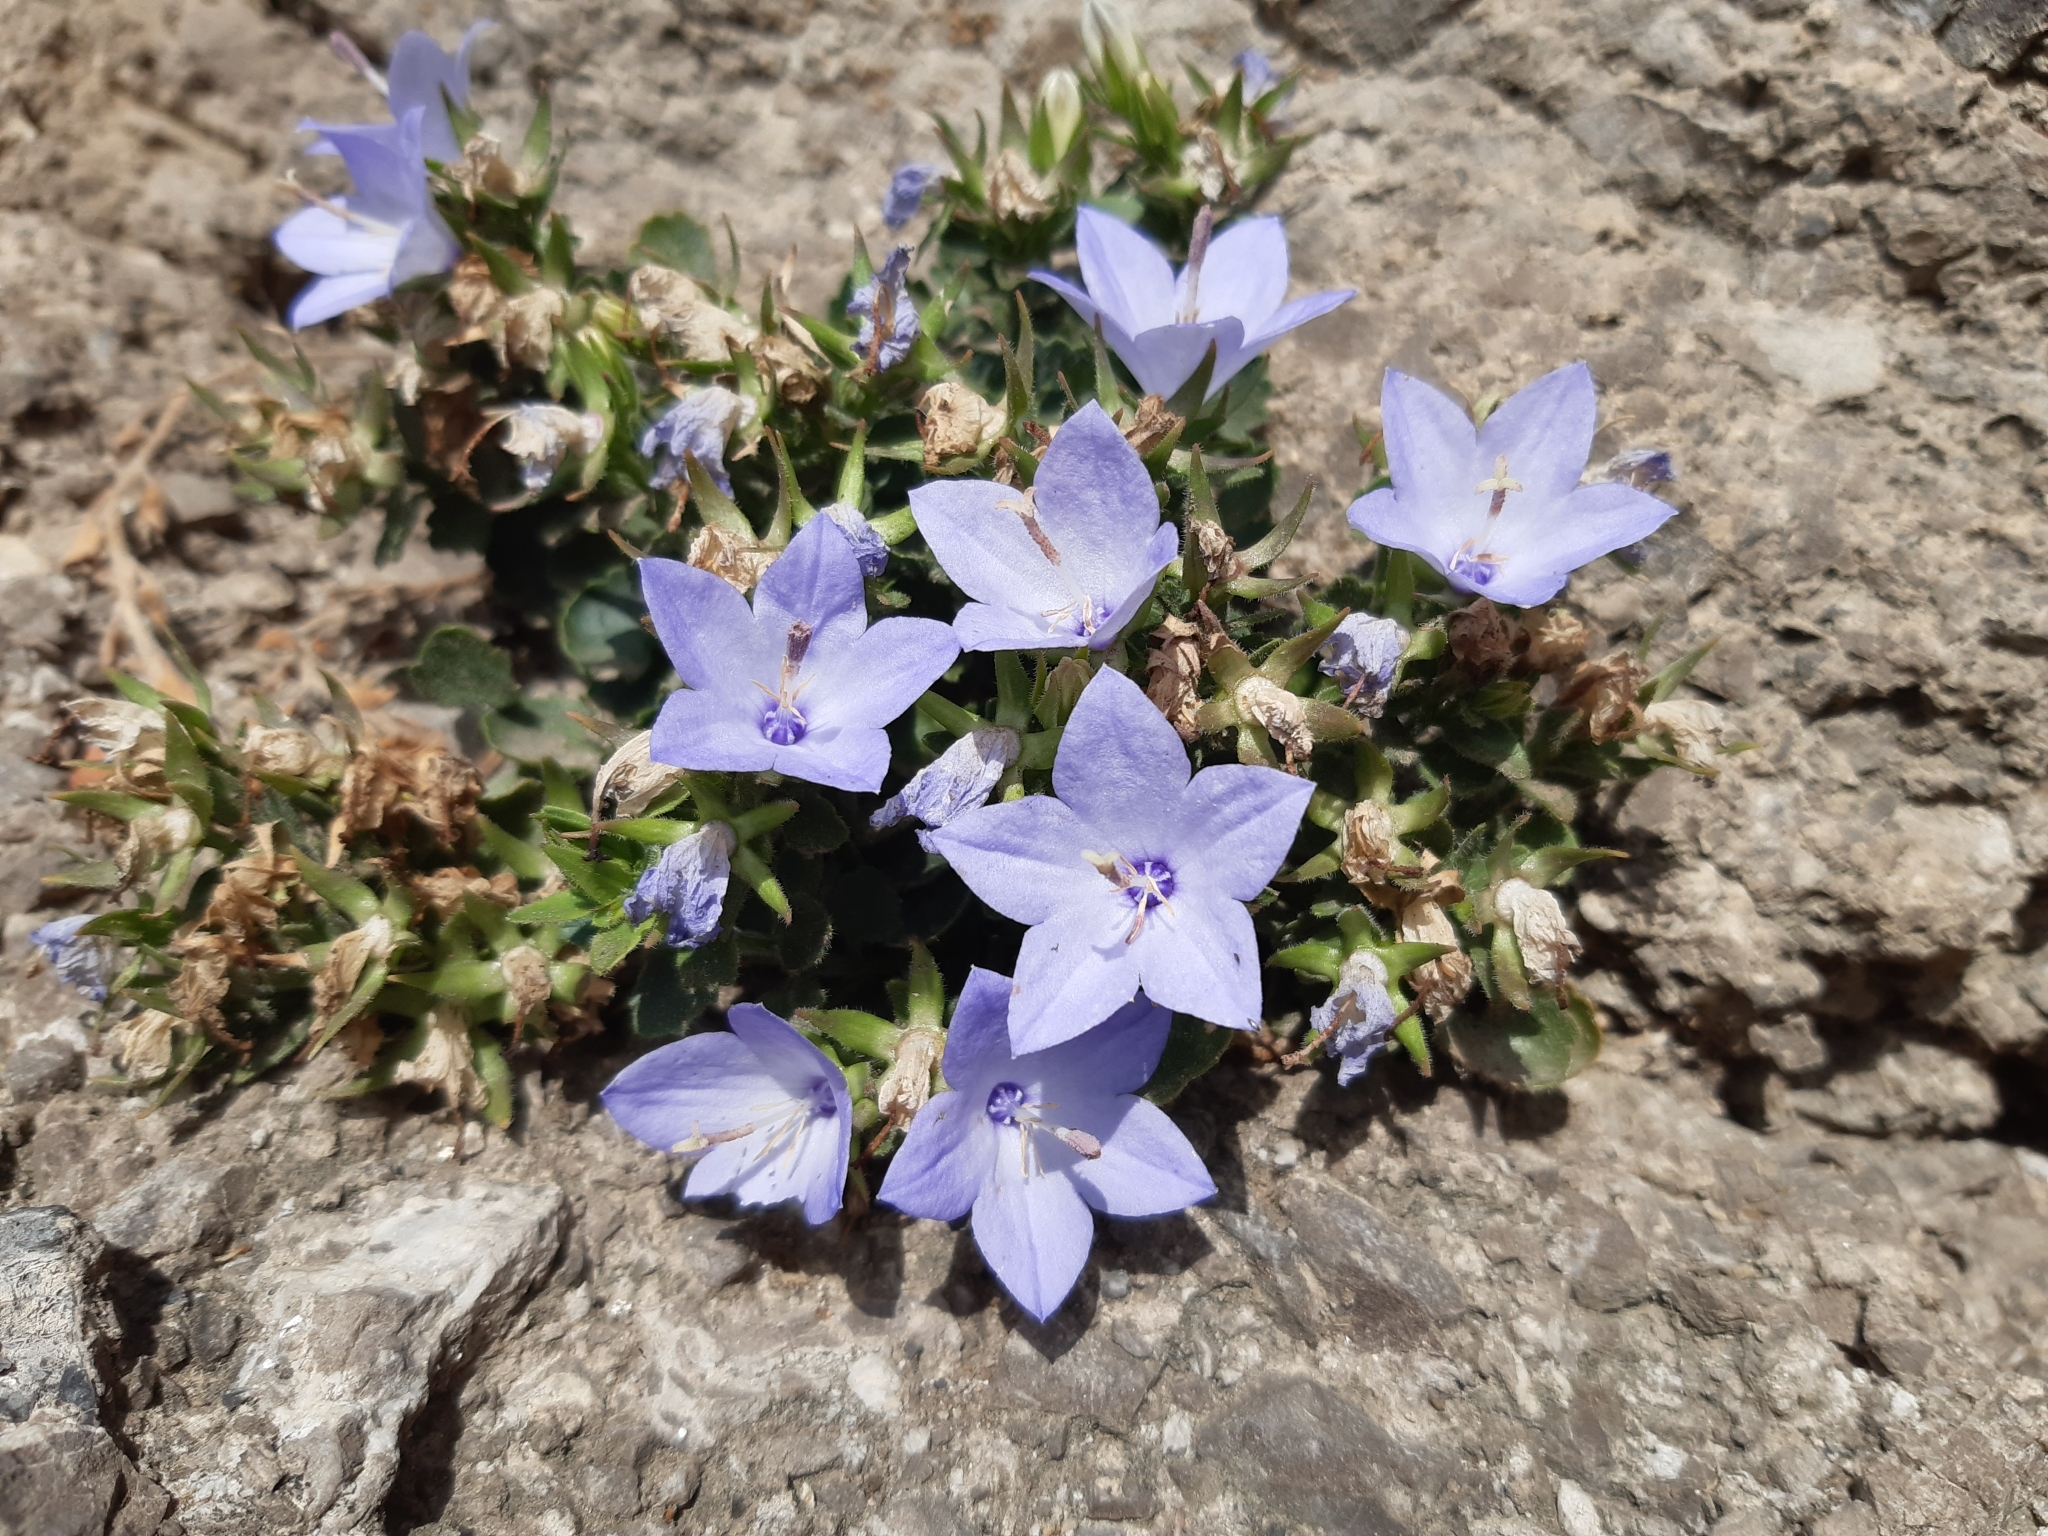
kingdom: Plantae
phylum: Tracheophyta
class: Magnoliopsida
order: Asterales
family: Campanulaceae
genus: Campanula
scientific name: Campanula fragilis
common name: Italian bellflower
